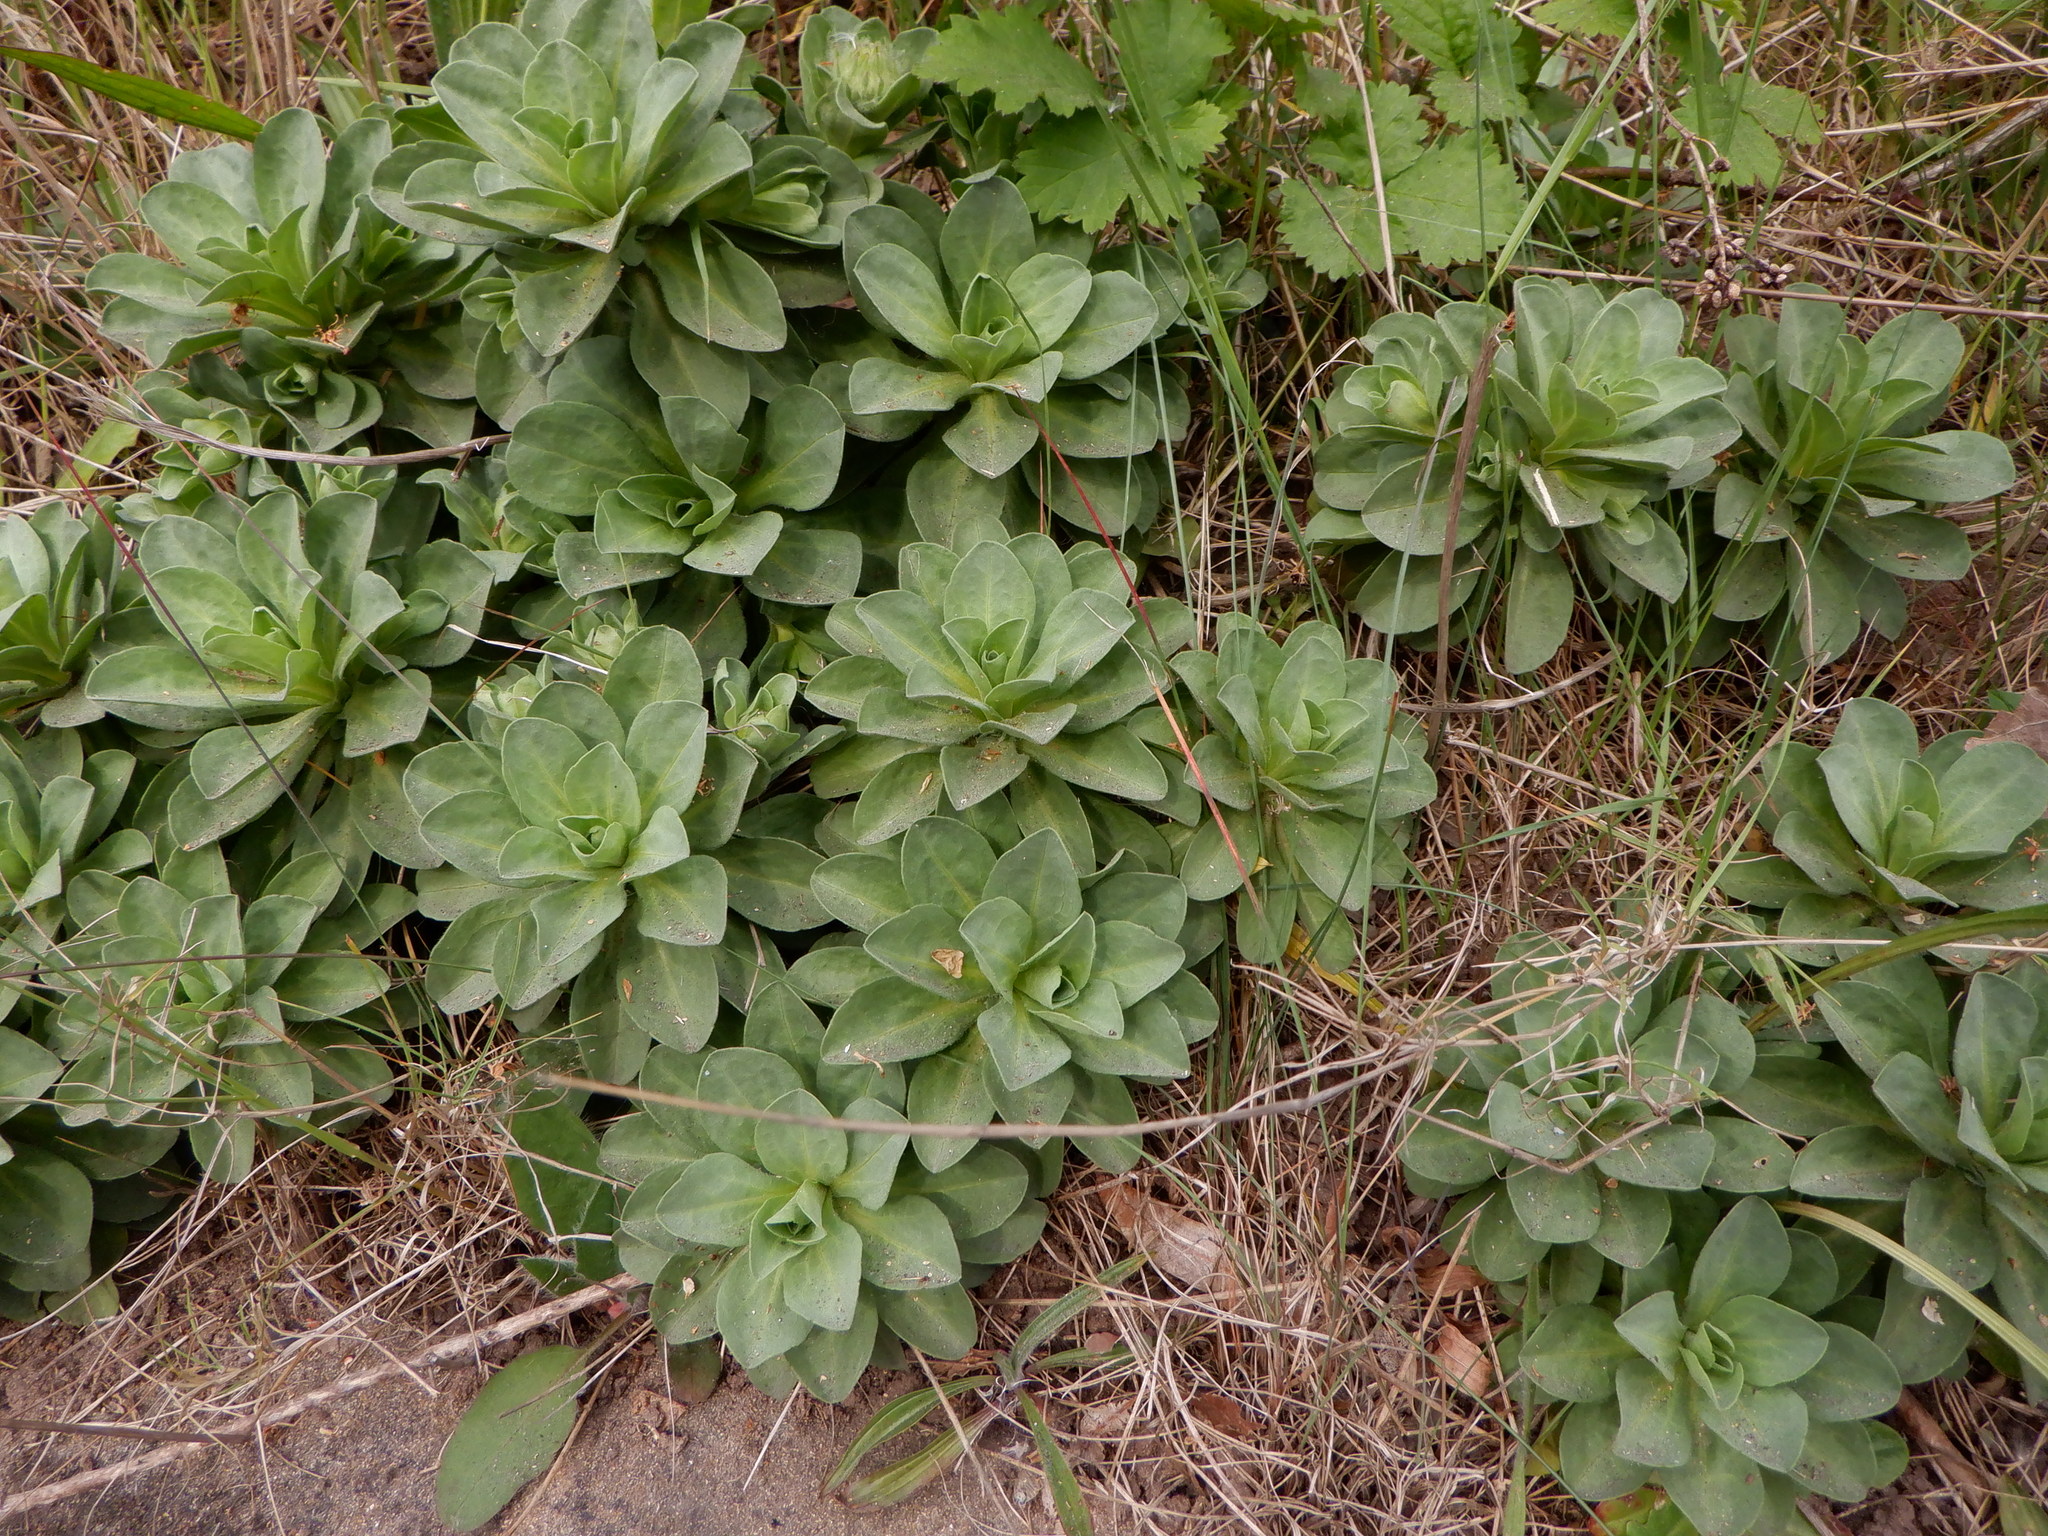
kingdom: Plantae
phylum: Tracheophyta
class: Magnoliopsida
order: Asterales
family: Asteraceae
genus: Erigeron
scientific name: Erigeron glaucus
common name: Seaside daisy
